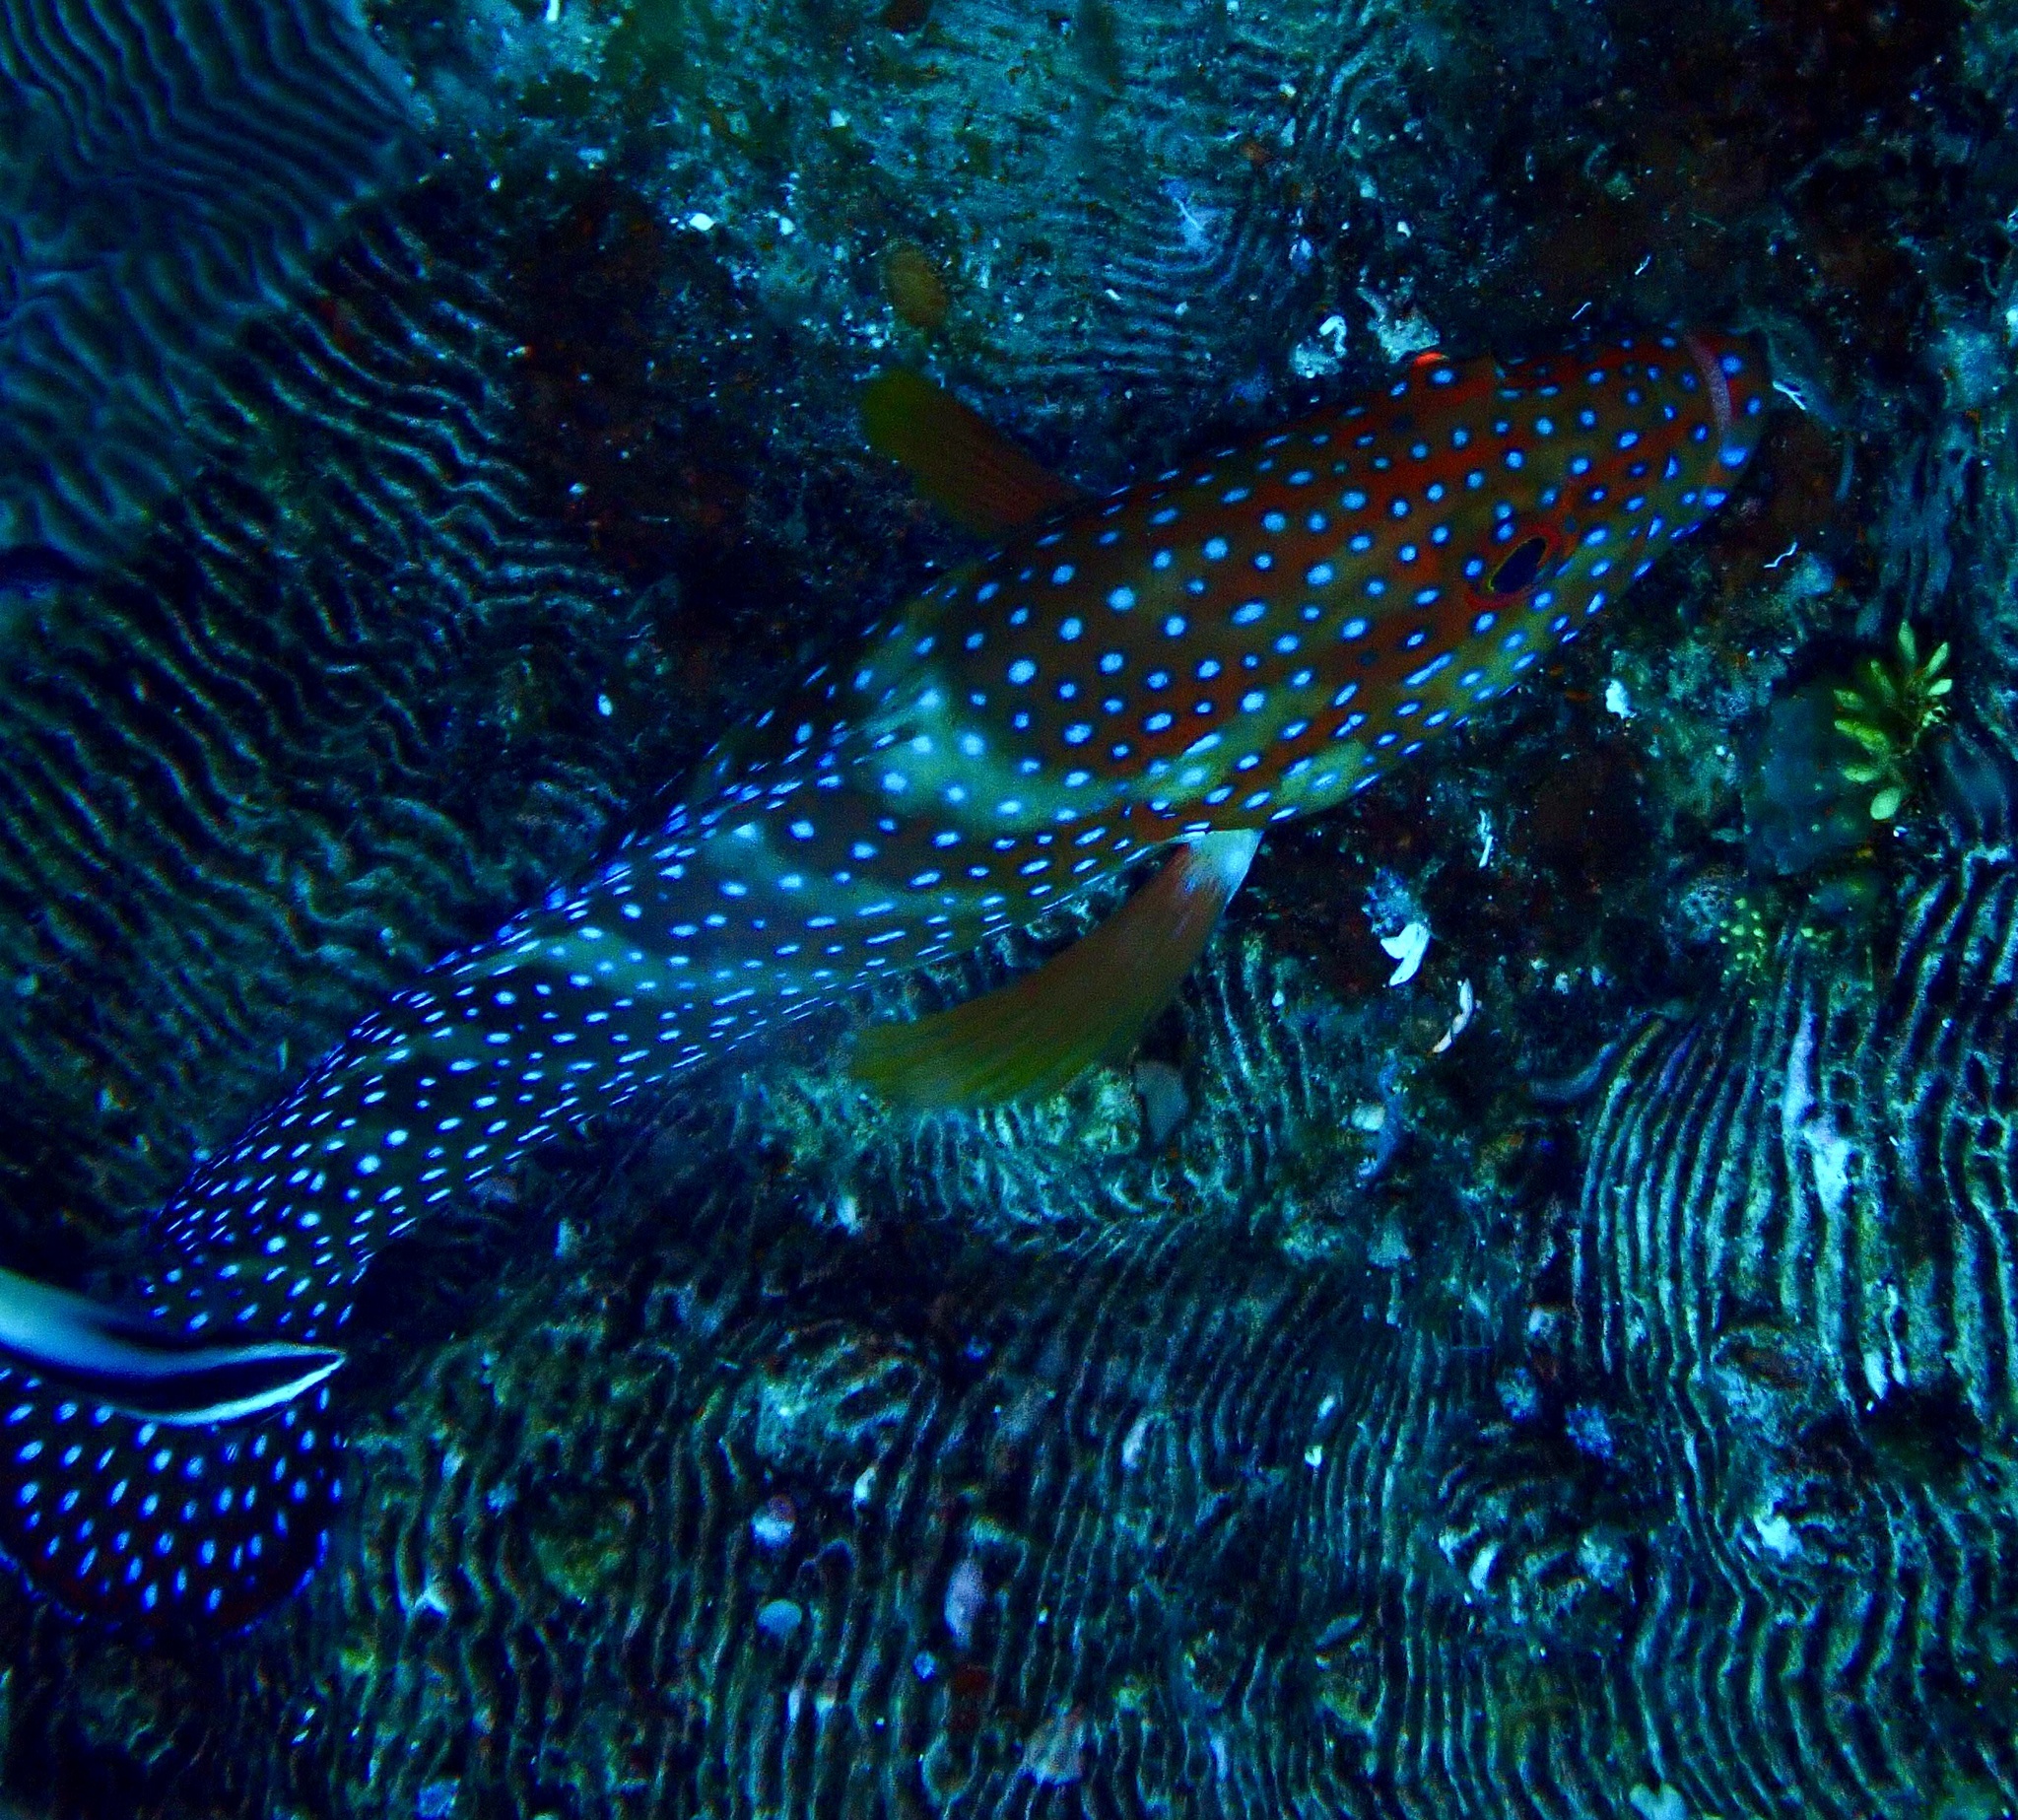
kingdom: Animalia
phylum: Chordata
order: Perciformes
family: Serranidae
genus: Cephalopholis
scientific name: Cephalopholis miniata
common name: Coral hind
